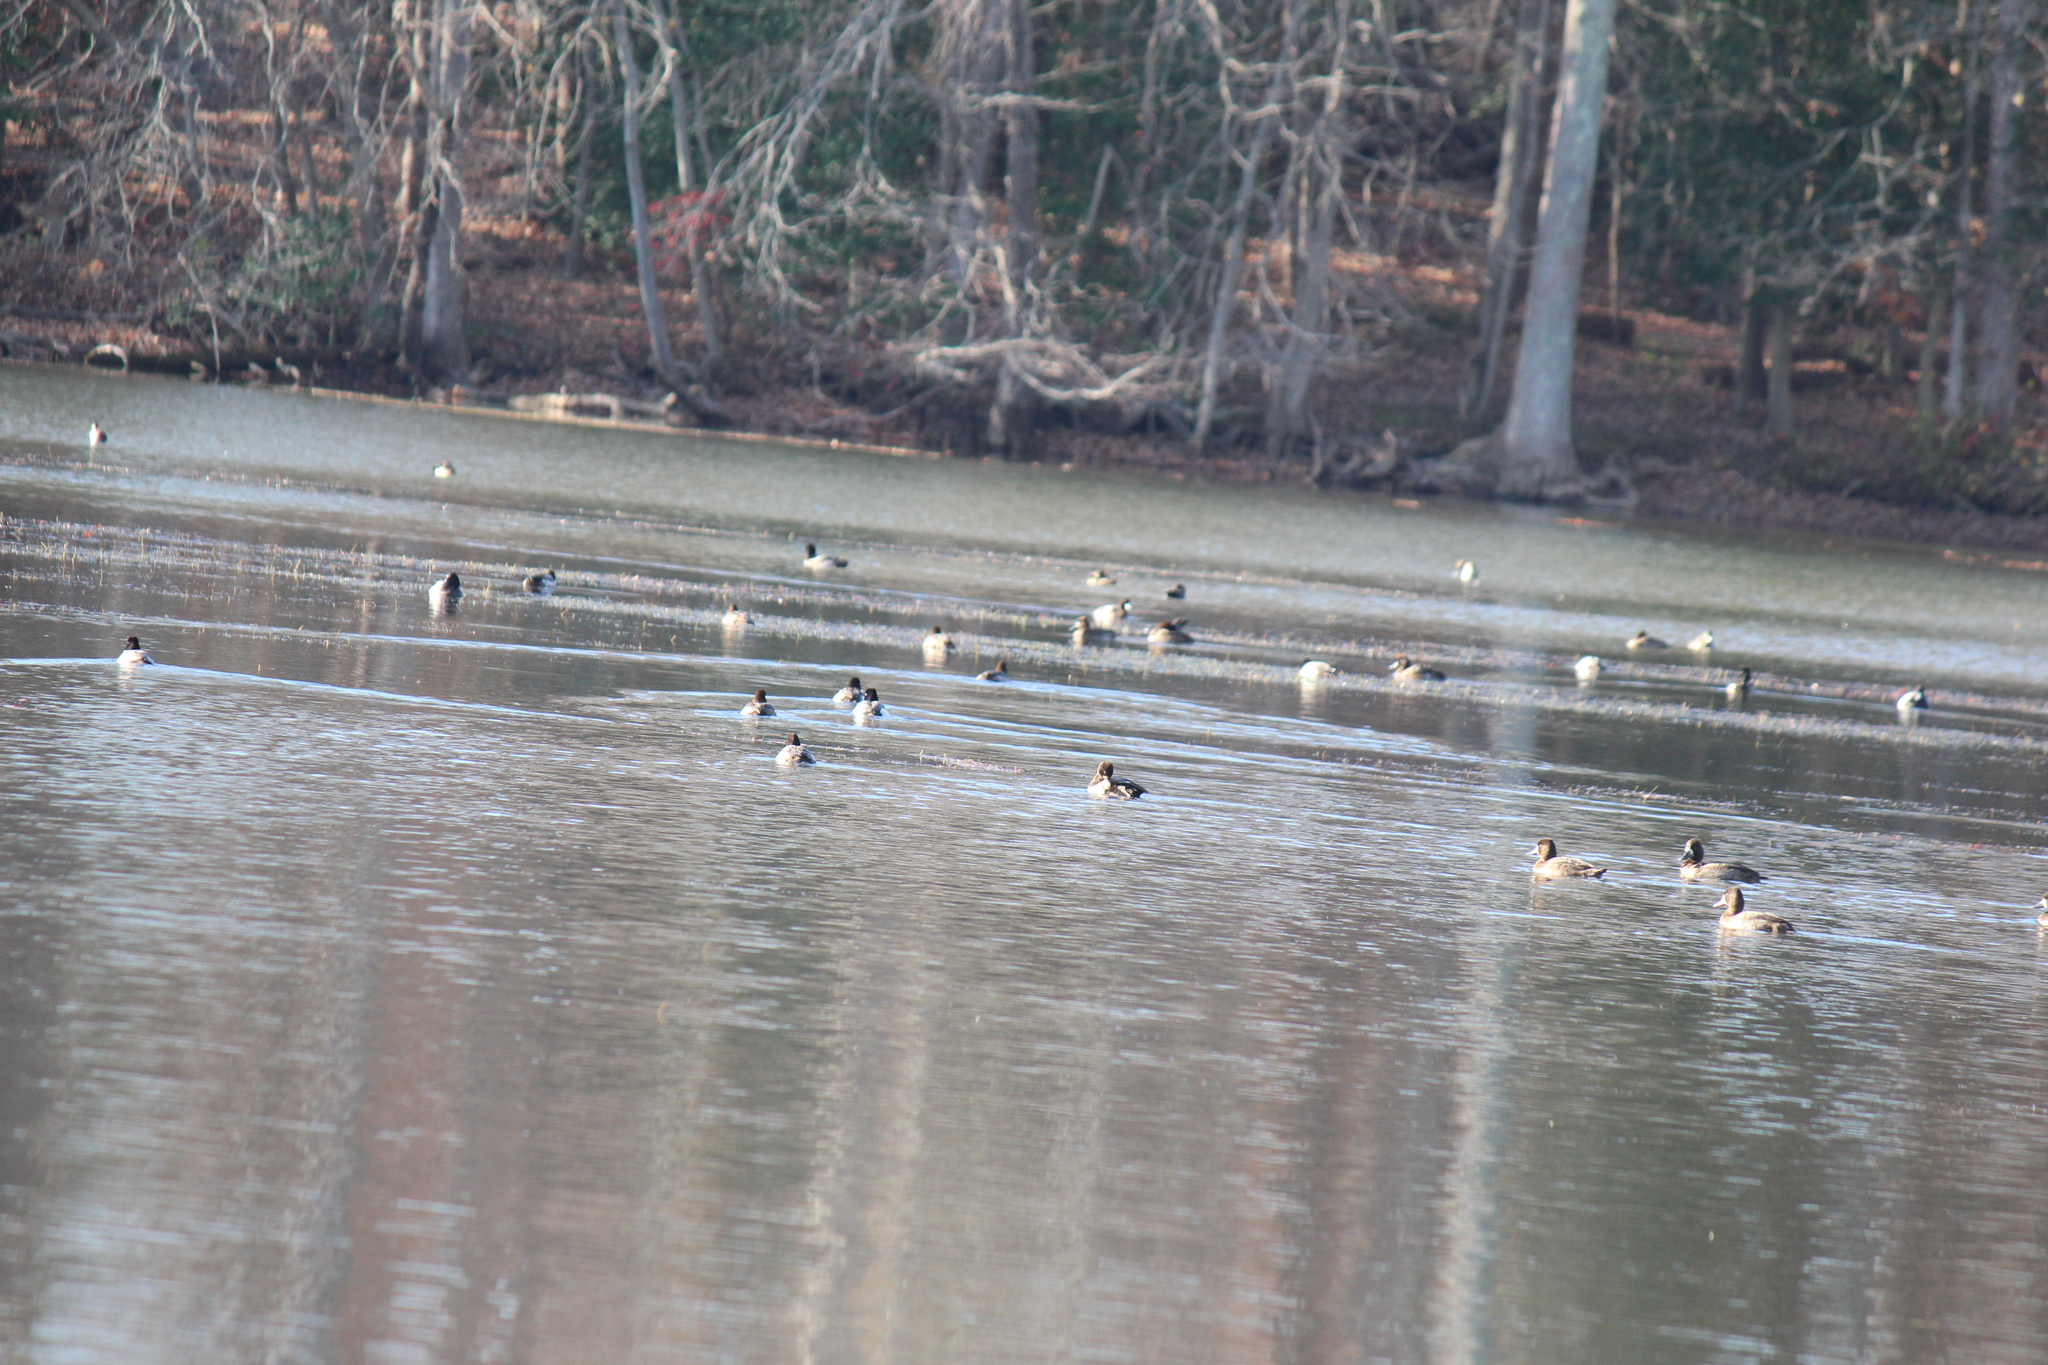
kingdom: Animalia
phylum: Chordata
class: Aves
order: Anseriformes
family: Anatidae
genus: Aythya
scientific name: Aythya affinis
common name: Lesser scaup
